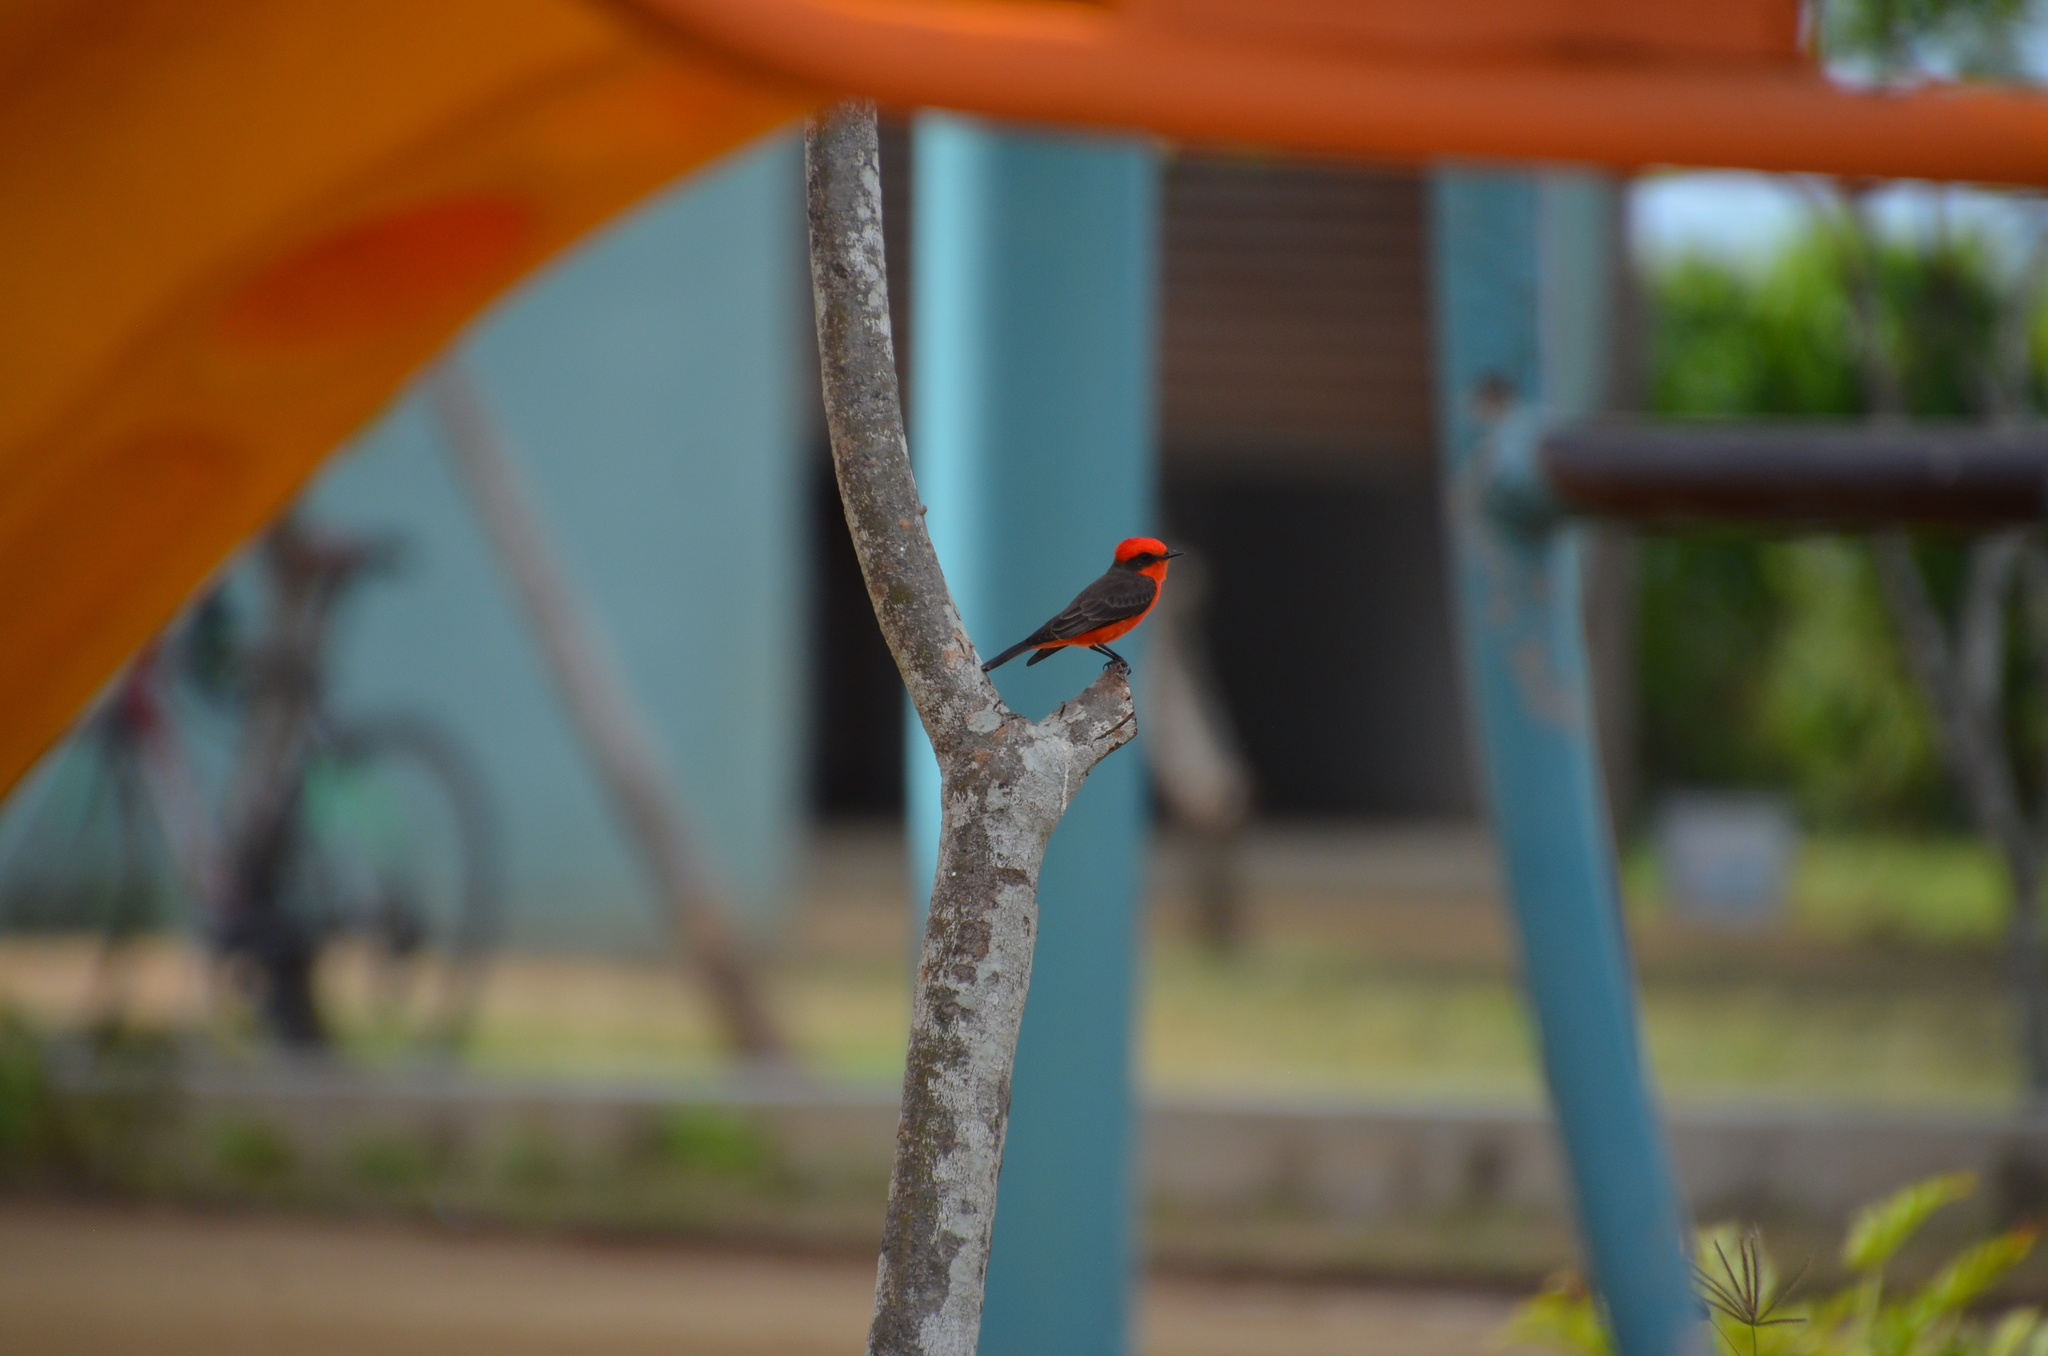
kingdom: Animalia
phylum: Chordata
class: Aves
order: Passeriformes
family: Tyrannidae
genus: Pyrocephalus
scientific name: Pyrocephalus rubinus
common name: Vermilion flycatcher
